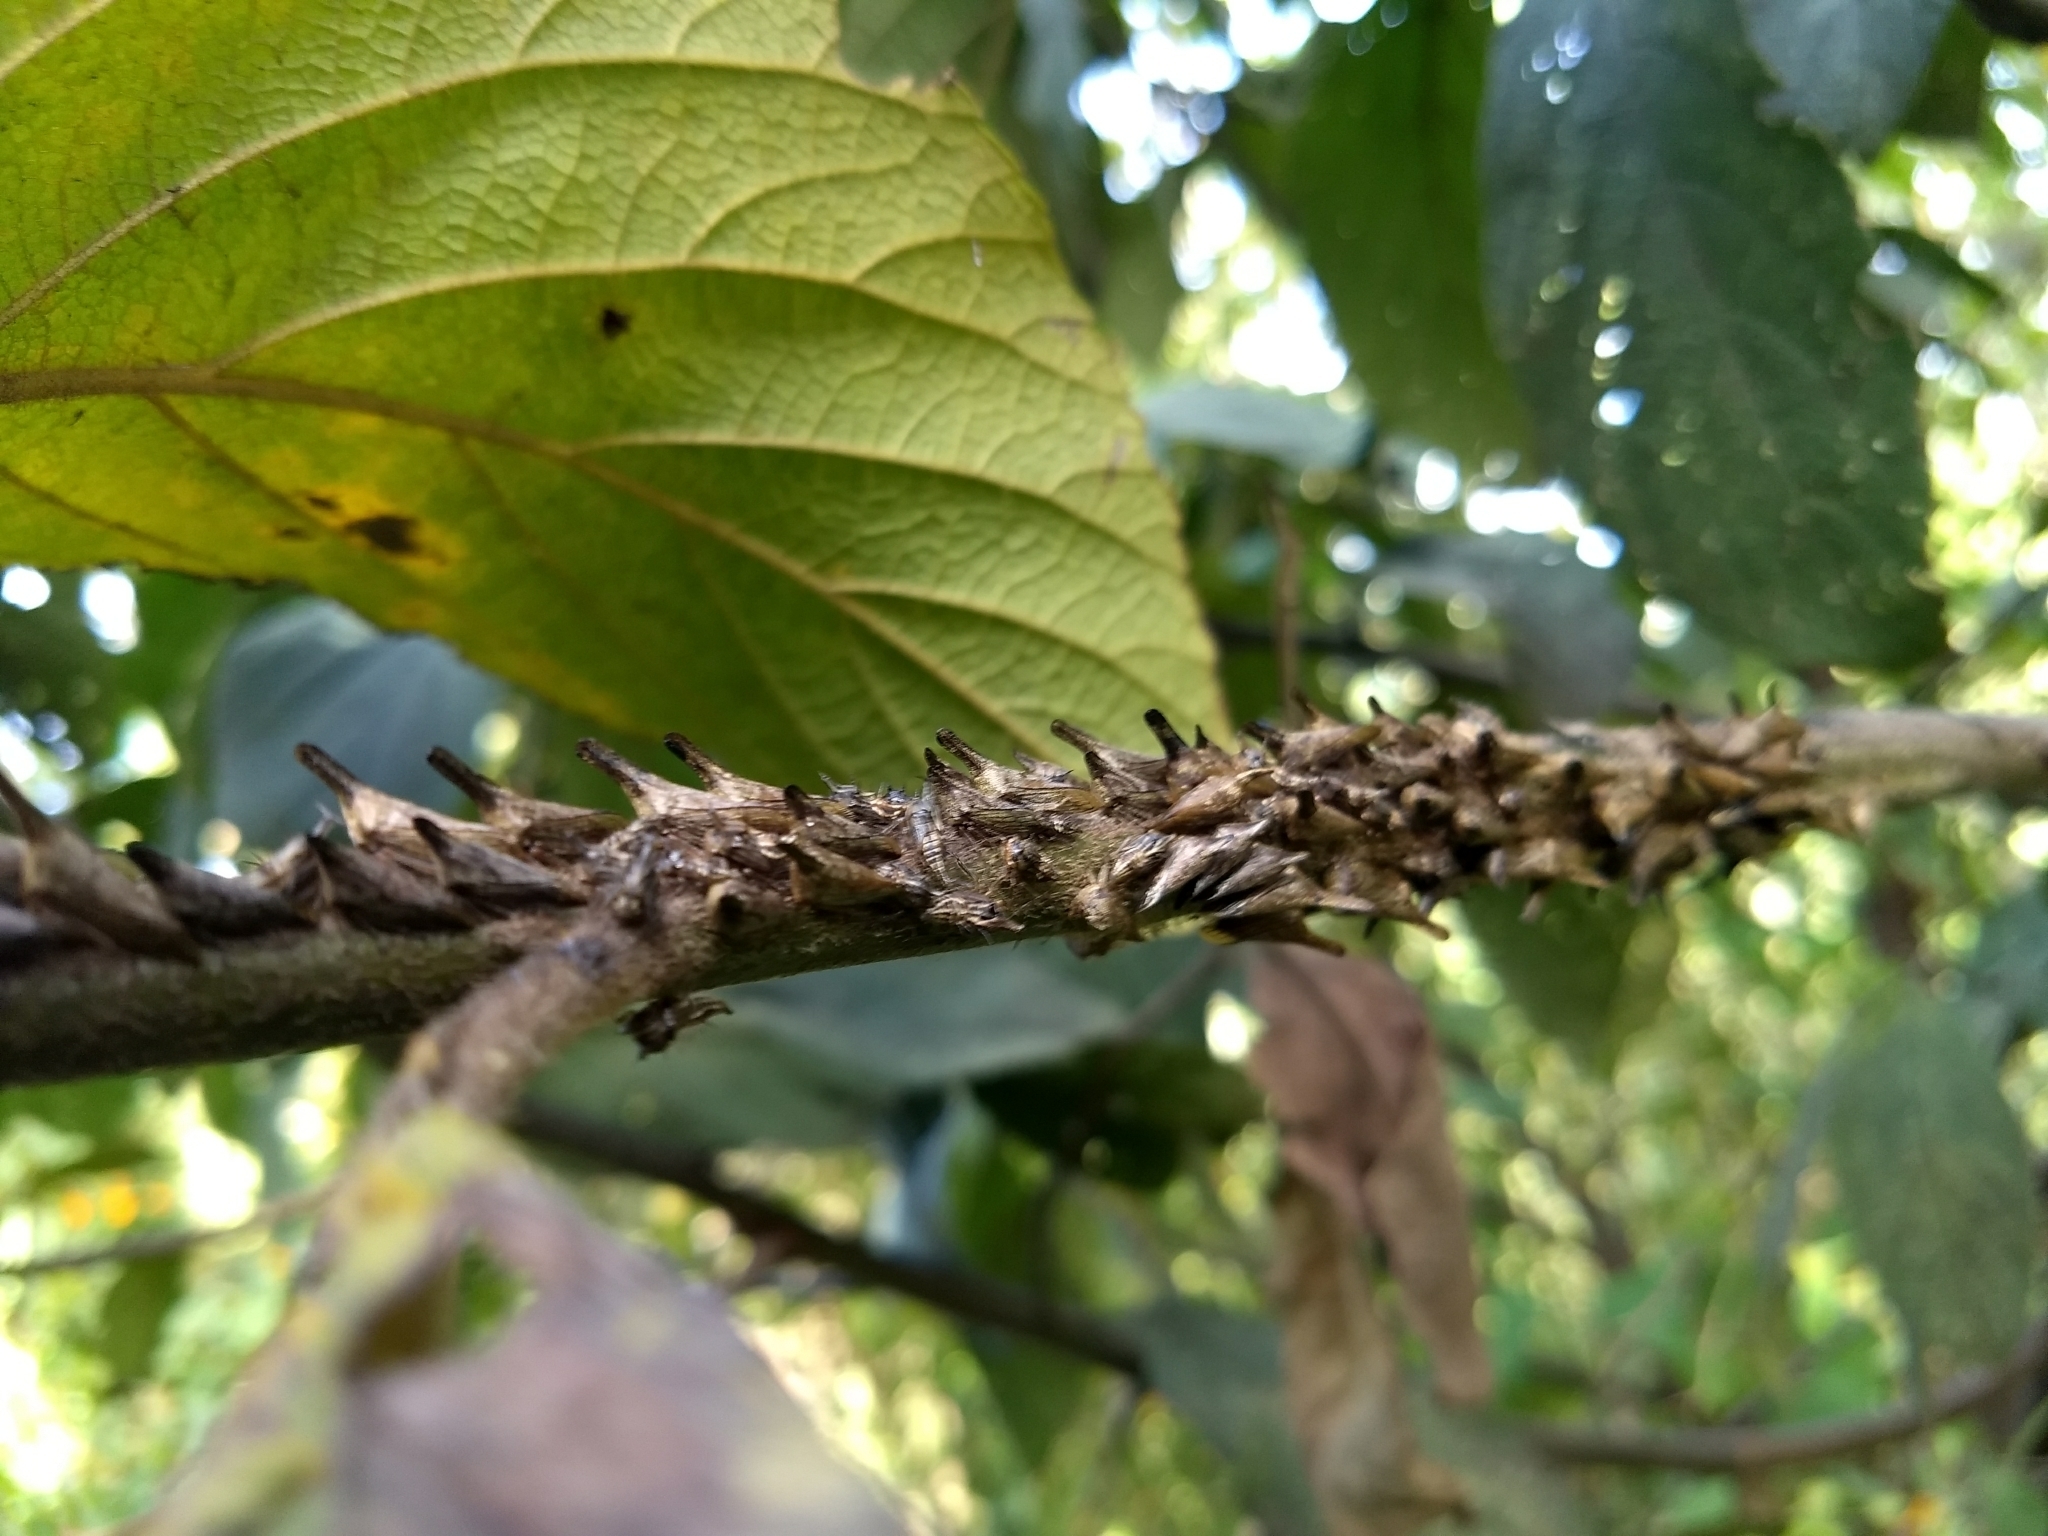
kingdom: Animalia
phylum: Arthropoda
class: Insecta
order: Hemiptera
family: Membracidae
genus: Aconophora
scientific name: Aconophora laminata
